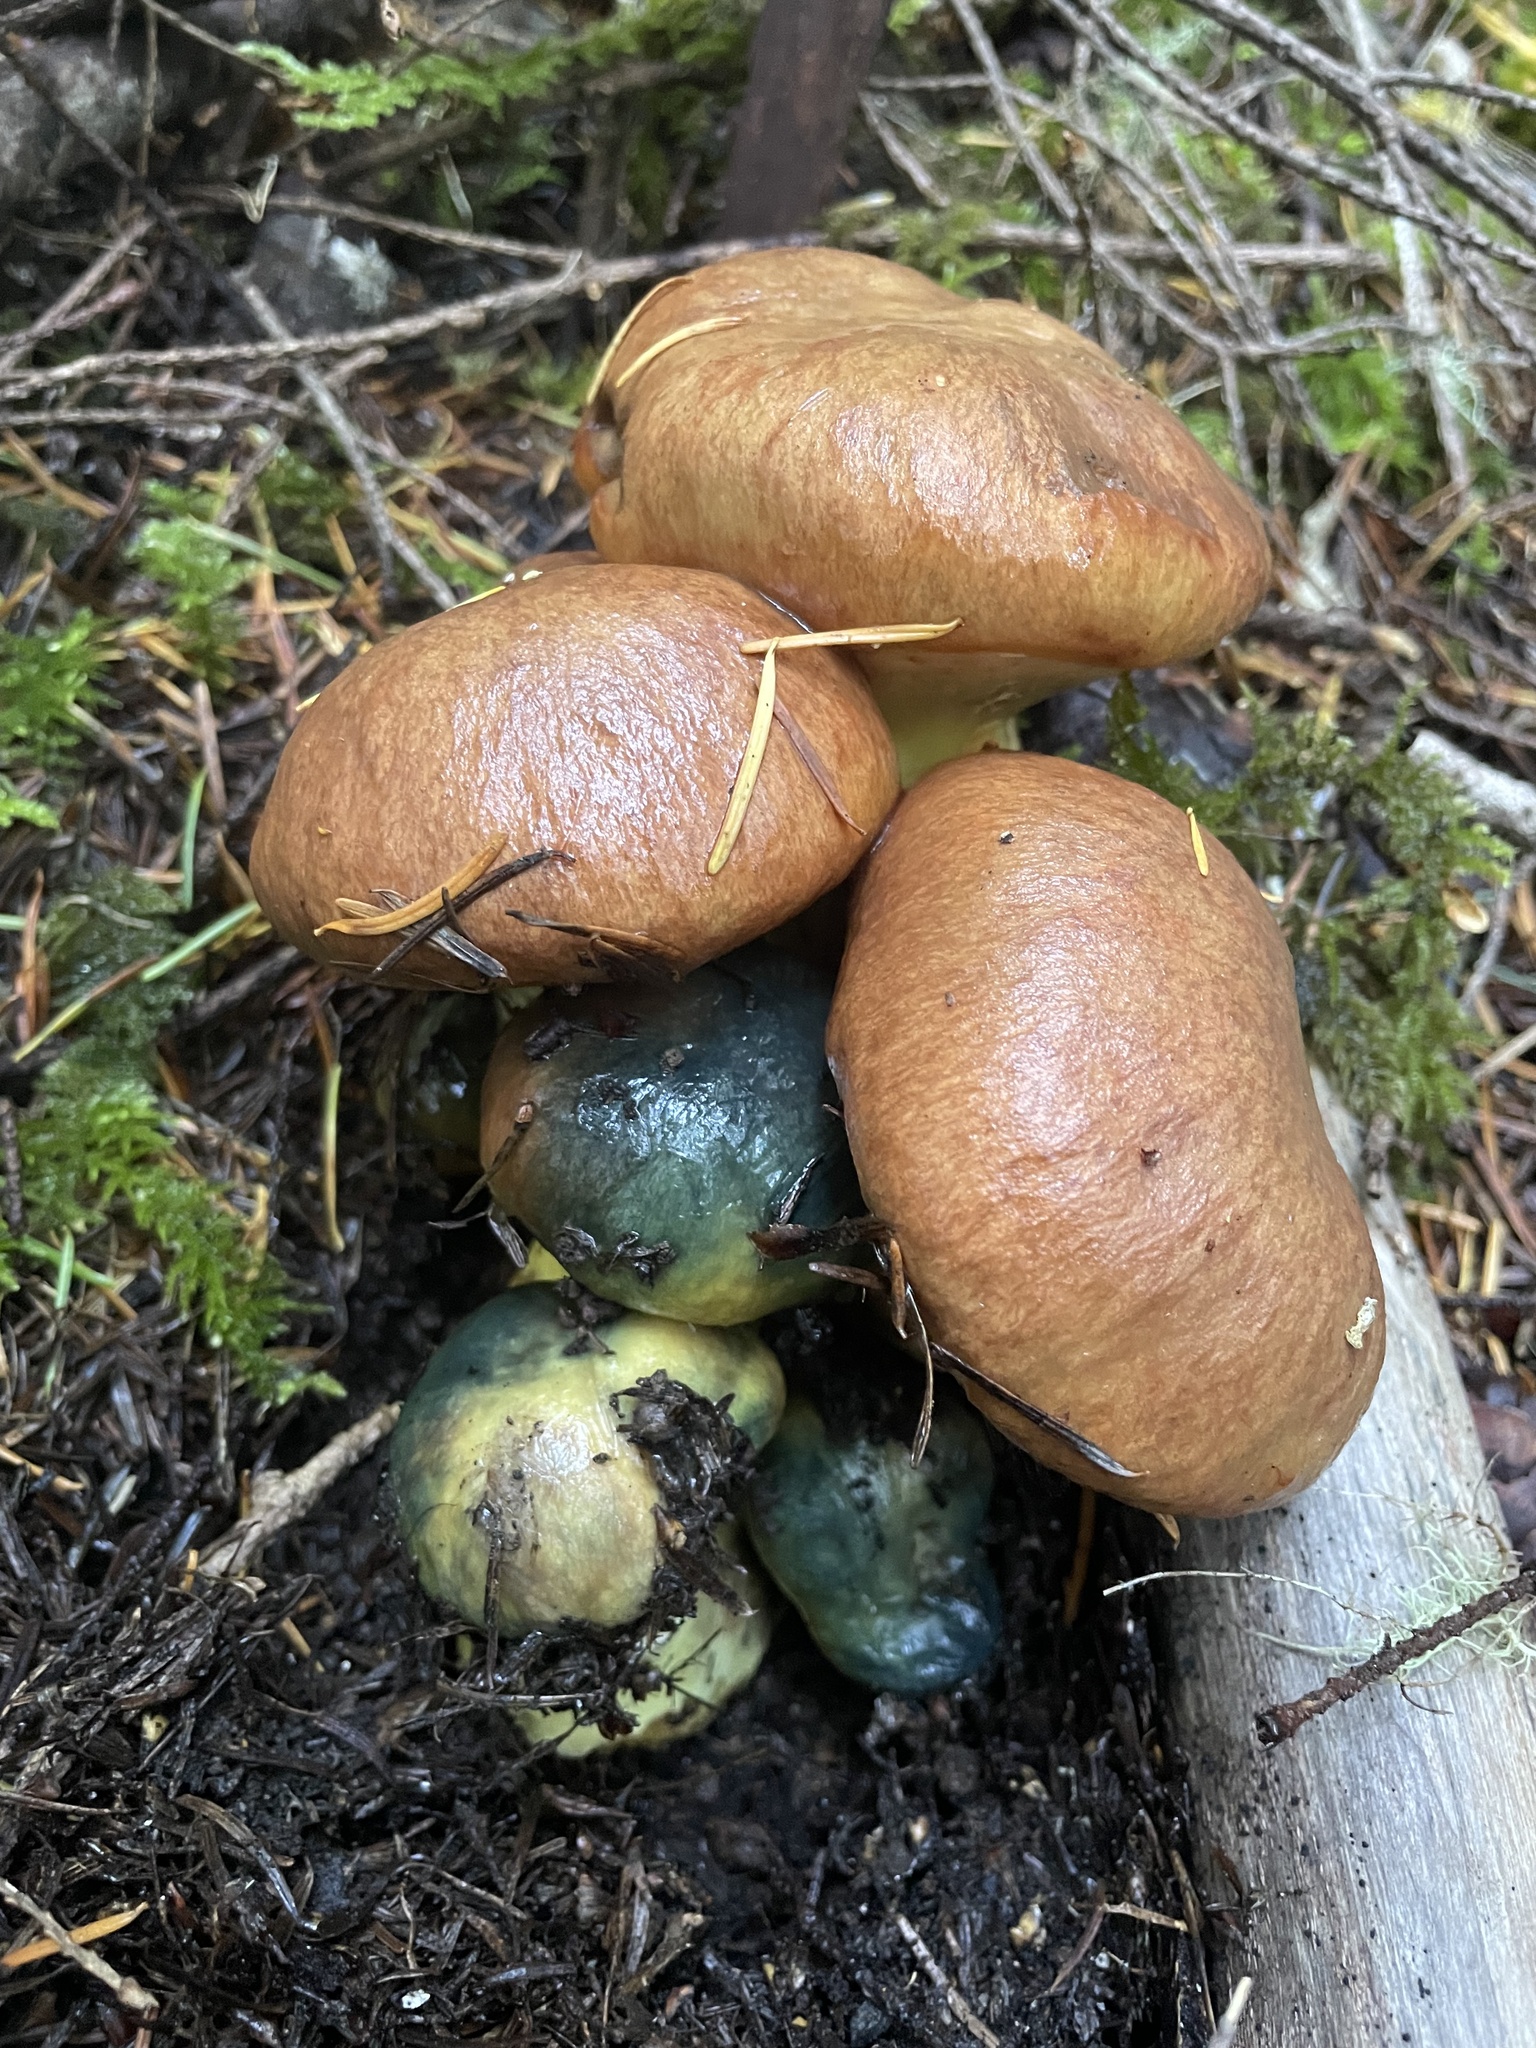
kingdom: Fungi
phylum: Basidiomycota
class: Agaricomycetes
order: Boletales
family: Suillaceae
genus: Suillus
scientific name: Suillus ponderosus
